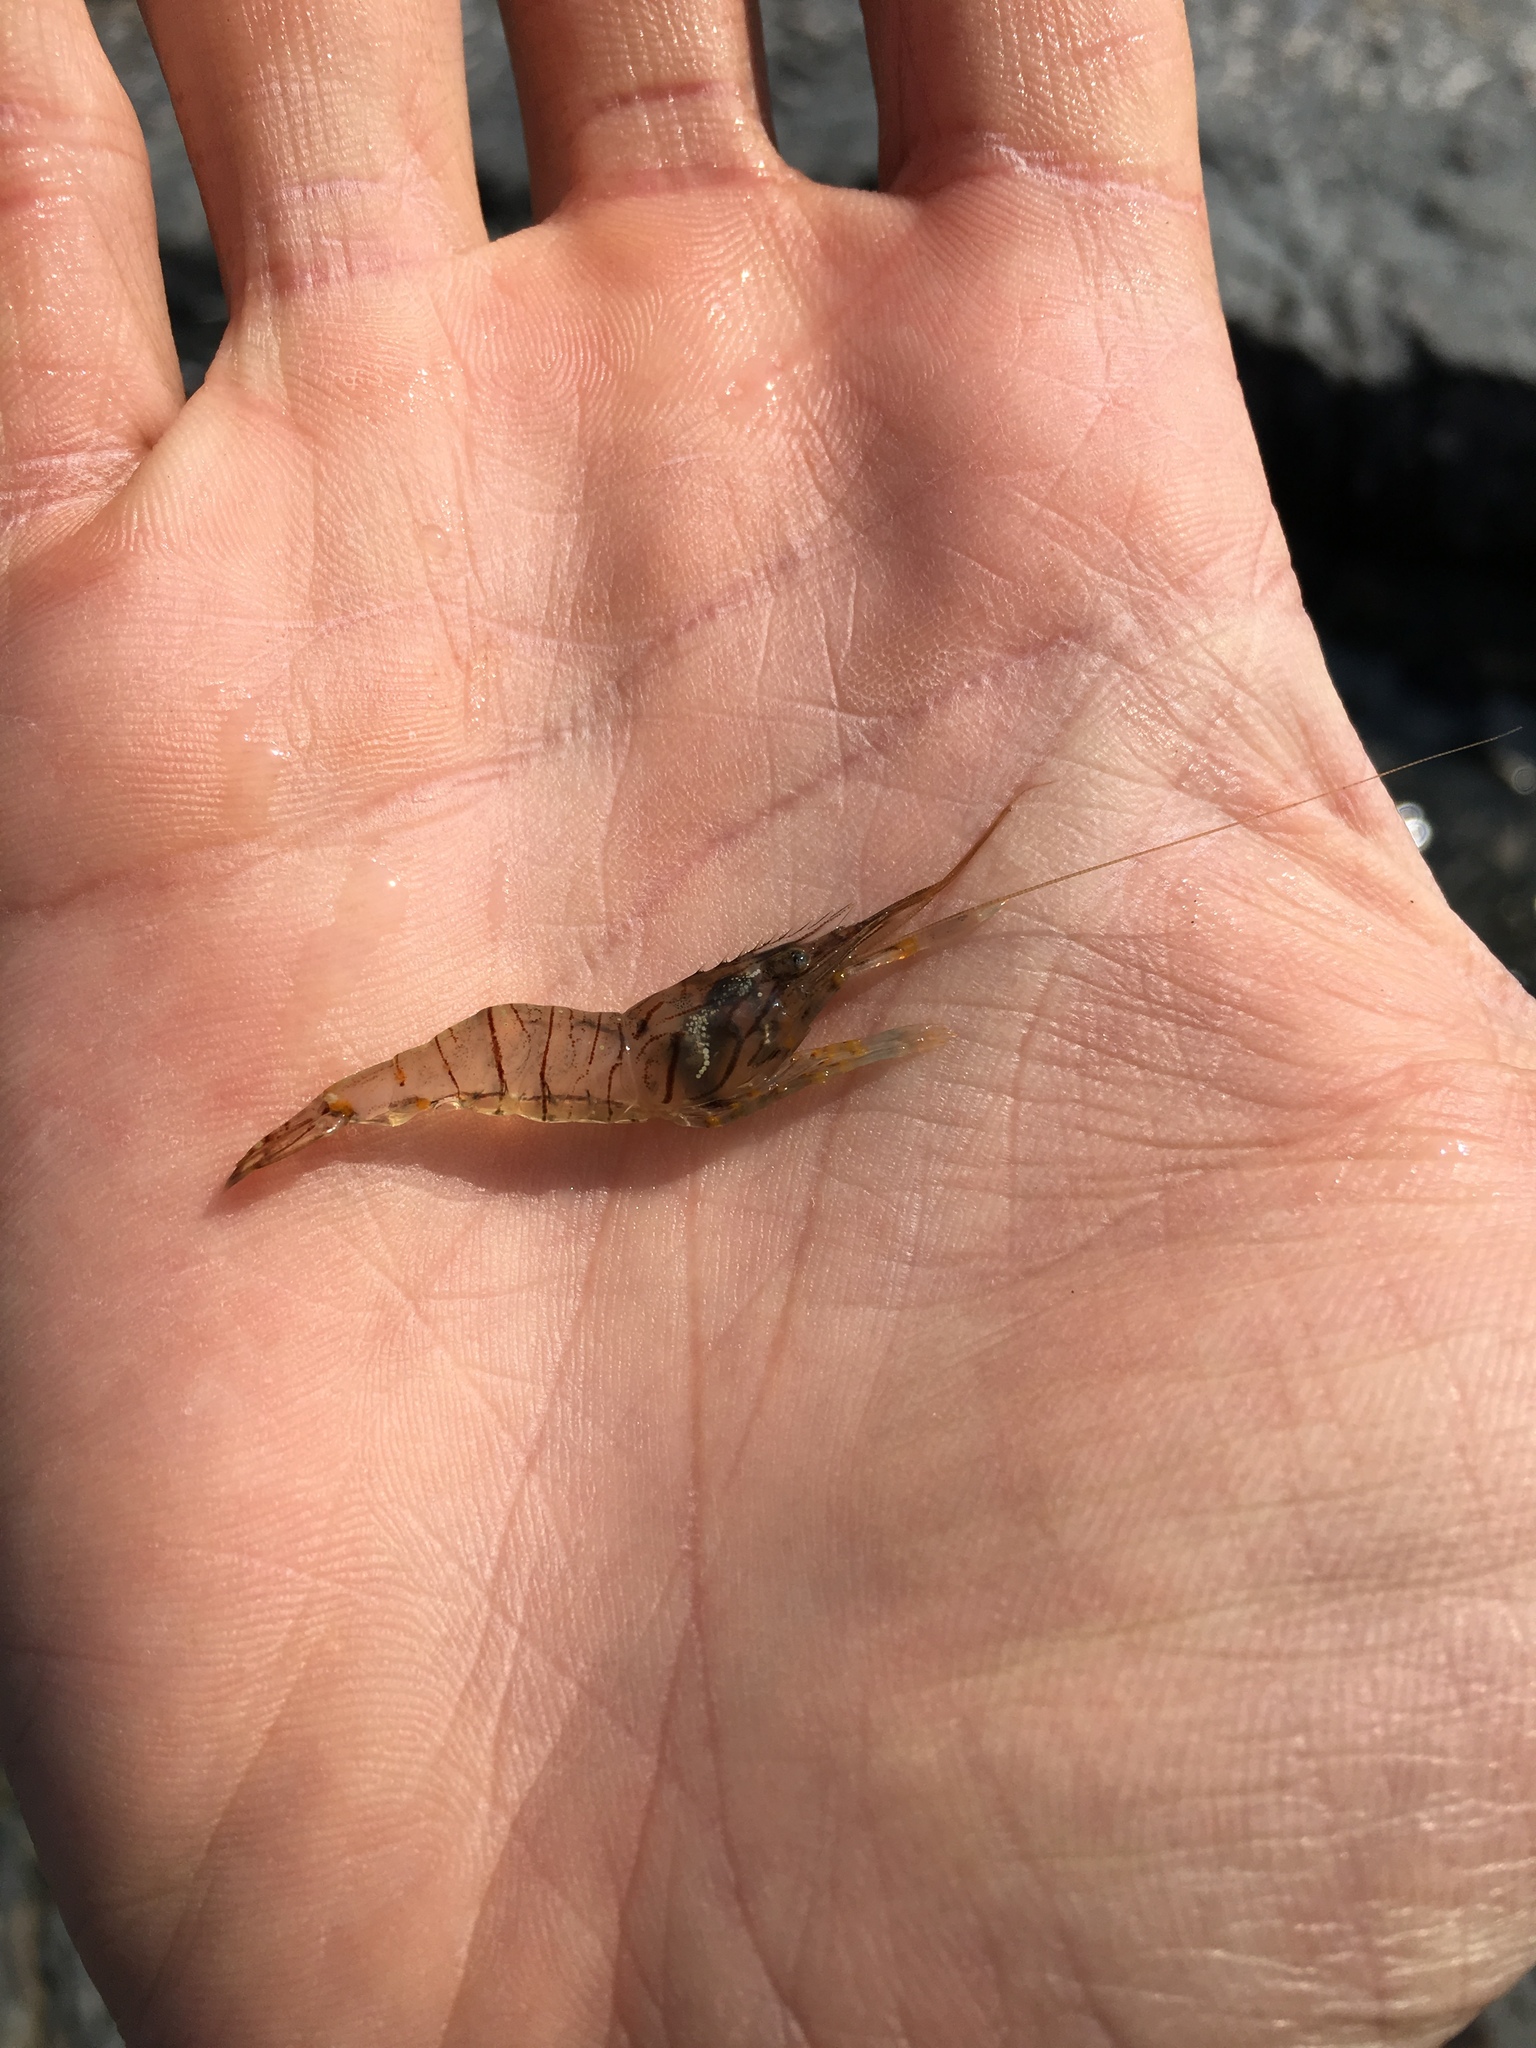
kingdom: Animalia
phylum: Arthropoda
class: Malacostraca
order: Decapoda
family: Palaemonidae
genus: Palaemon
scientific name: Palaemon elegans
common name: Grass prawm
